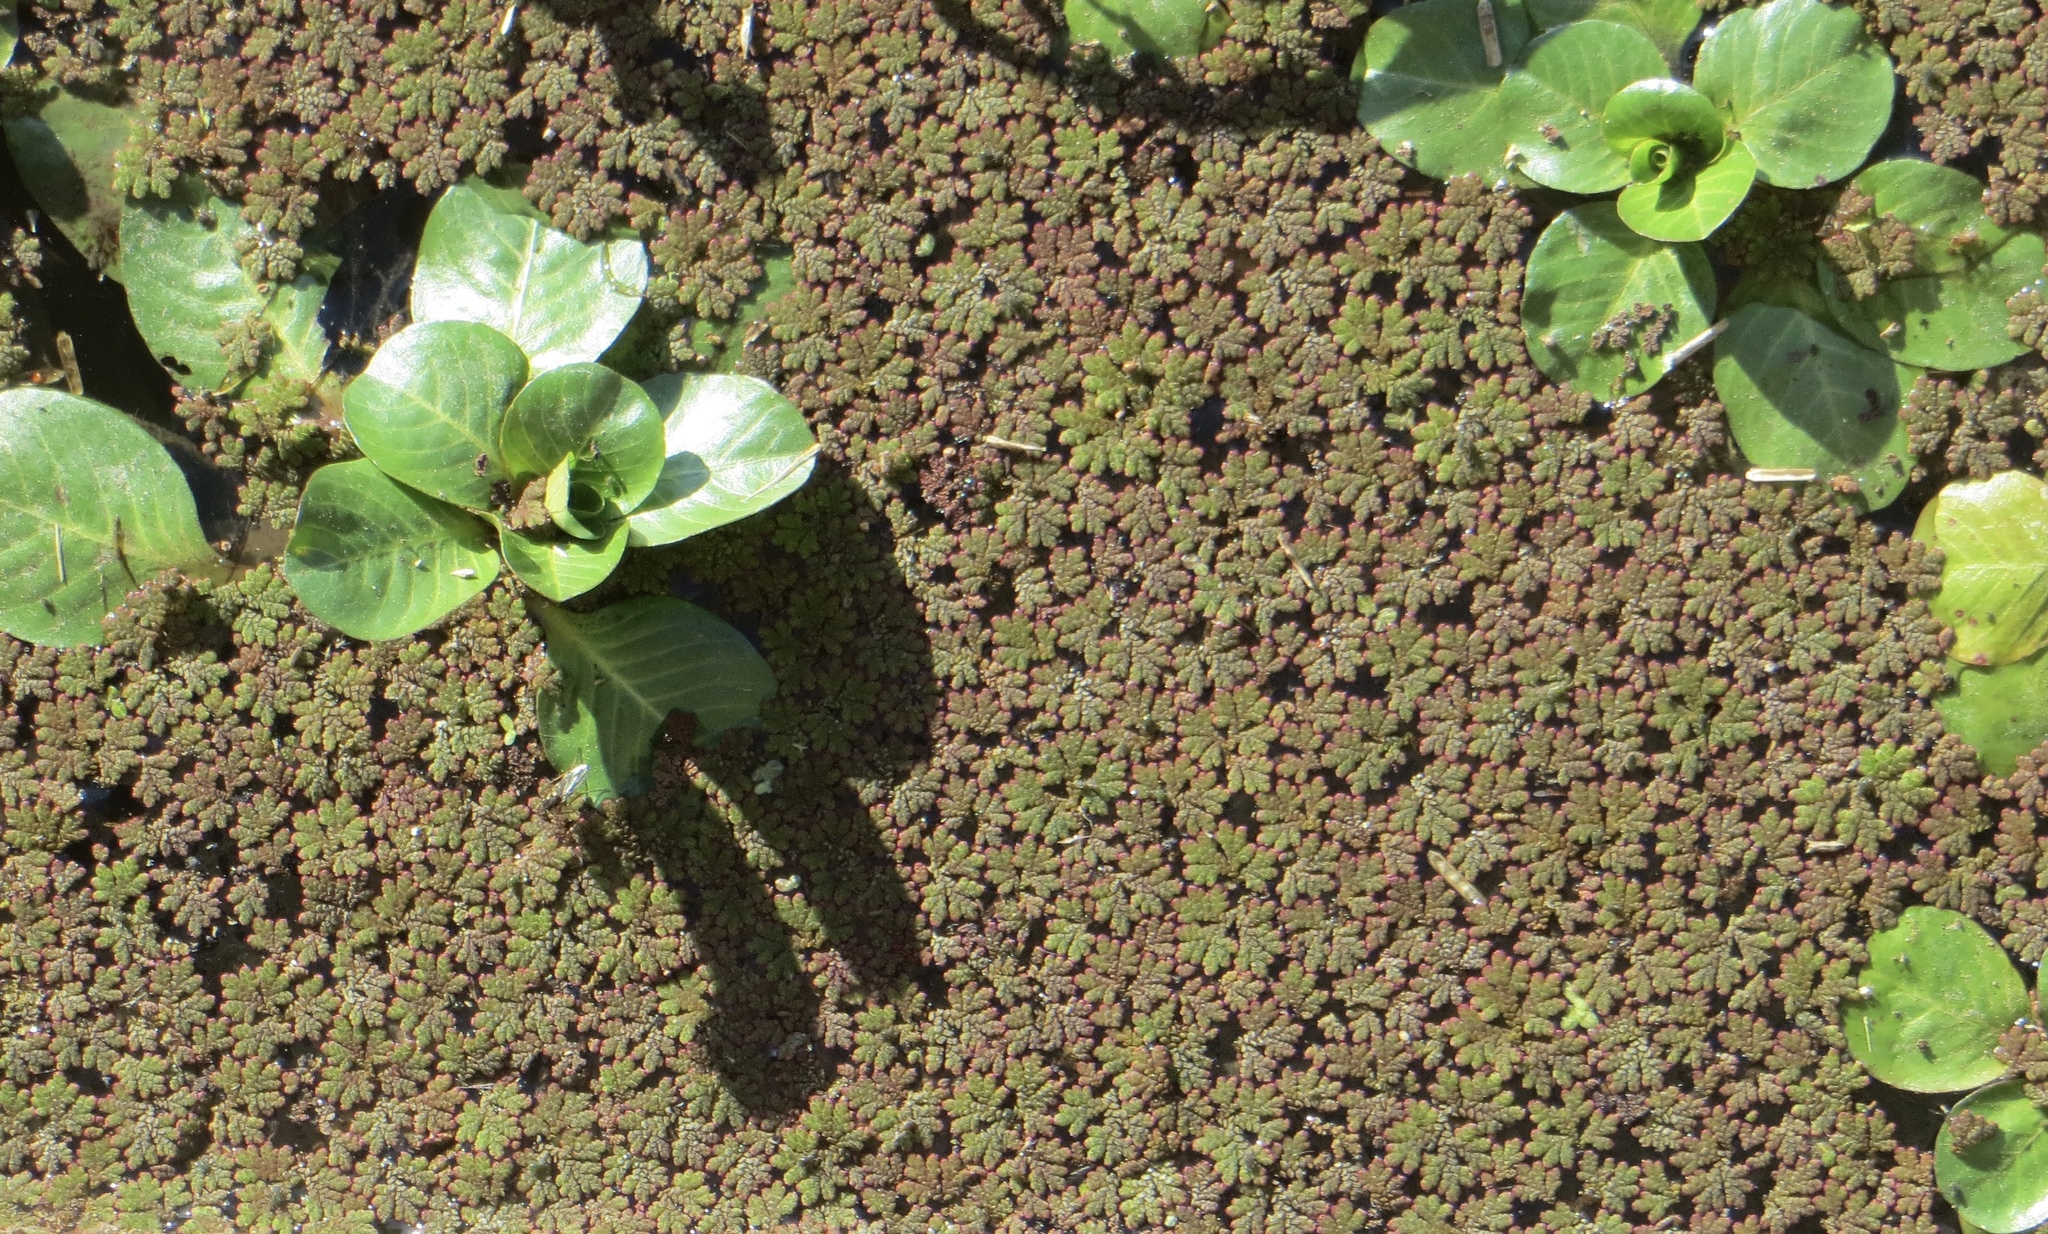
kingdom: Plantae
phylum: Tracheophyta
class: Polypodiopsida
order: Salviniales
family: Salviniaceae
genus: Azolla
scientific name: Azolla filiculoides
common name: Water fern
